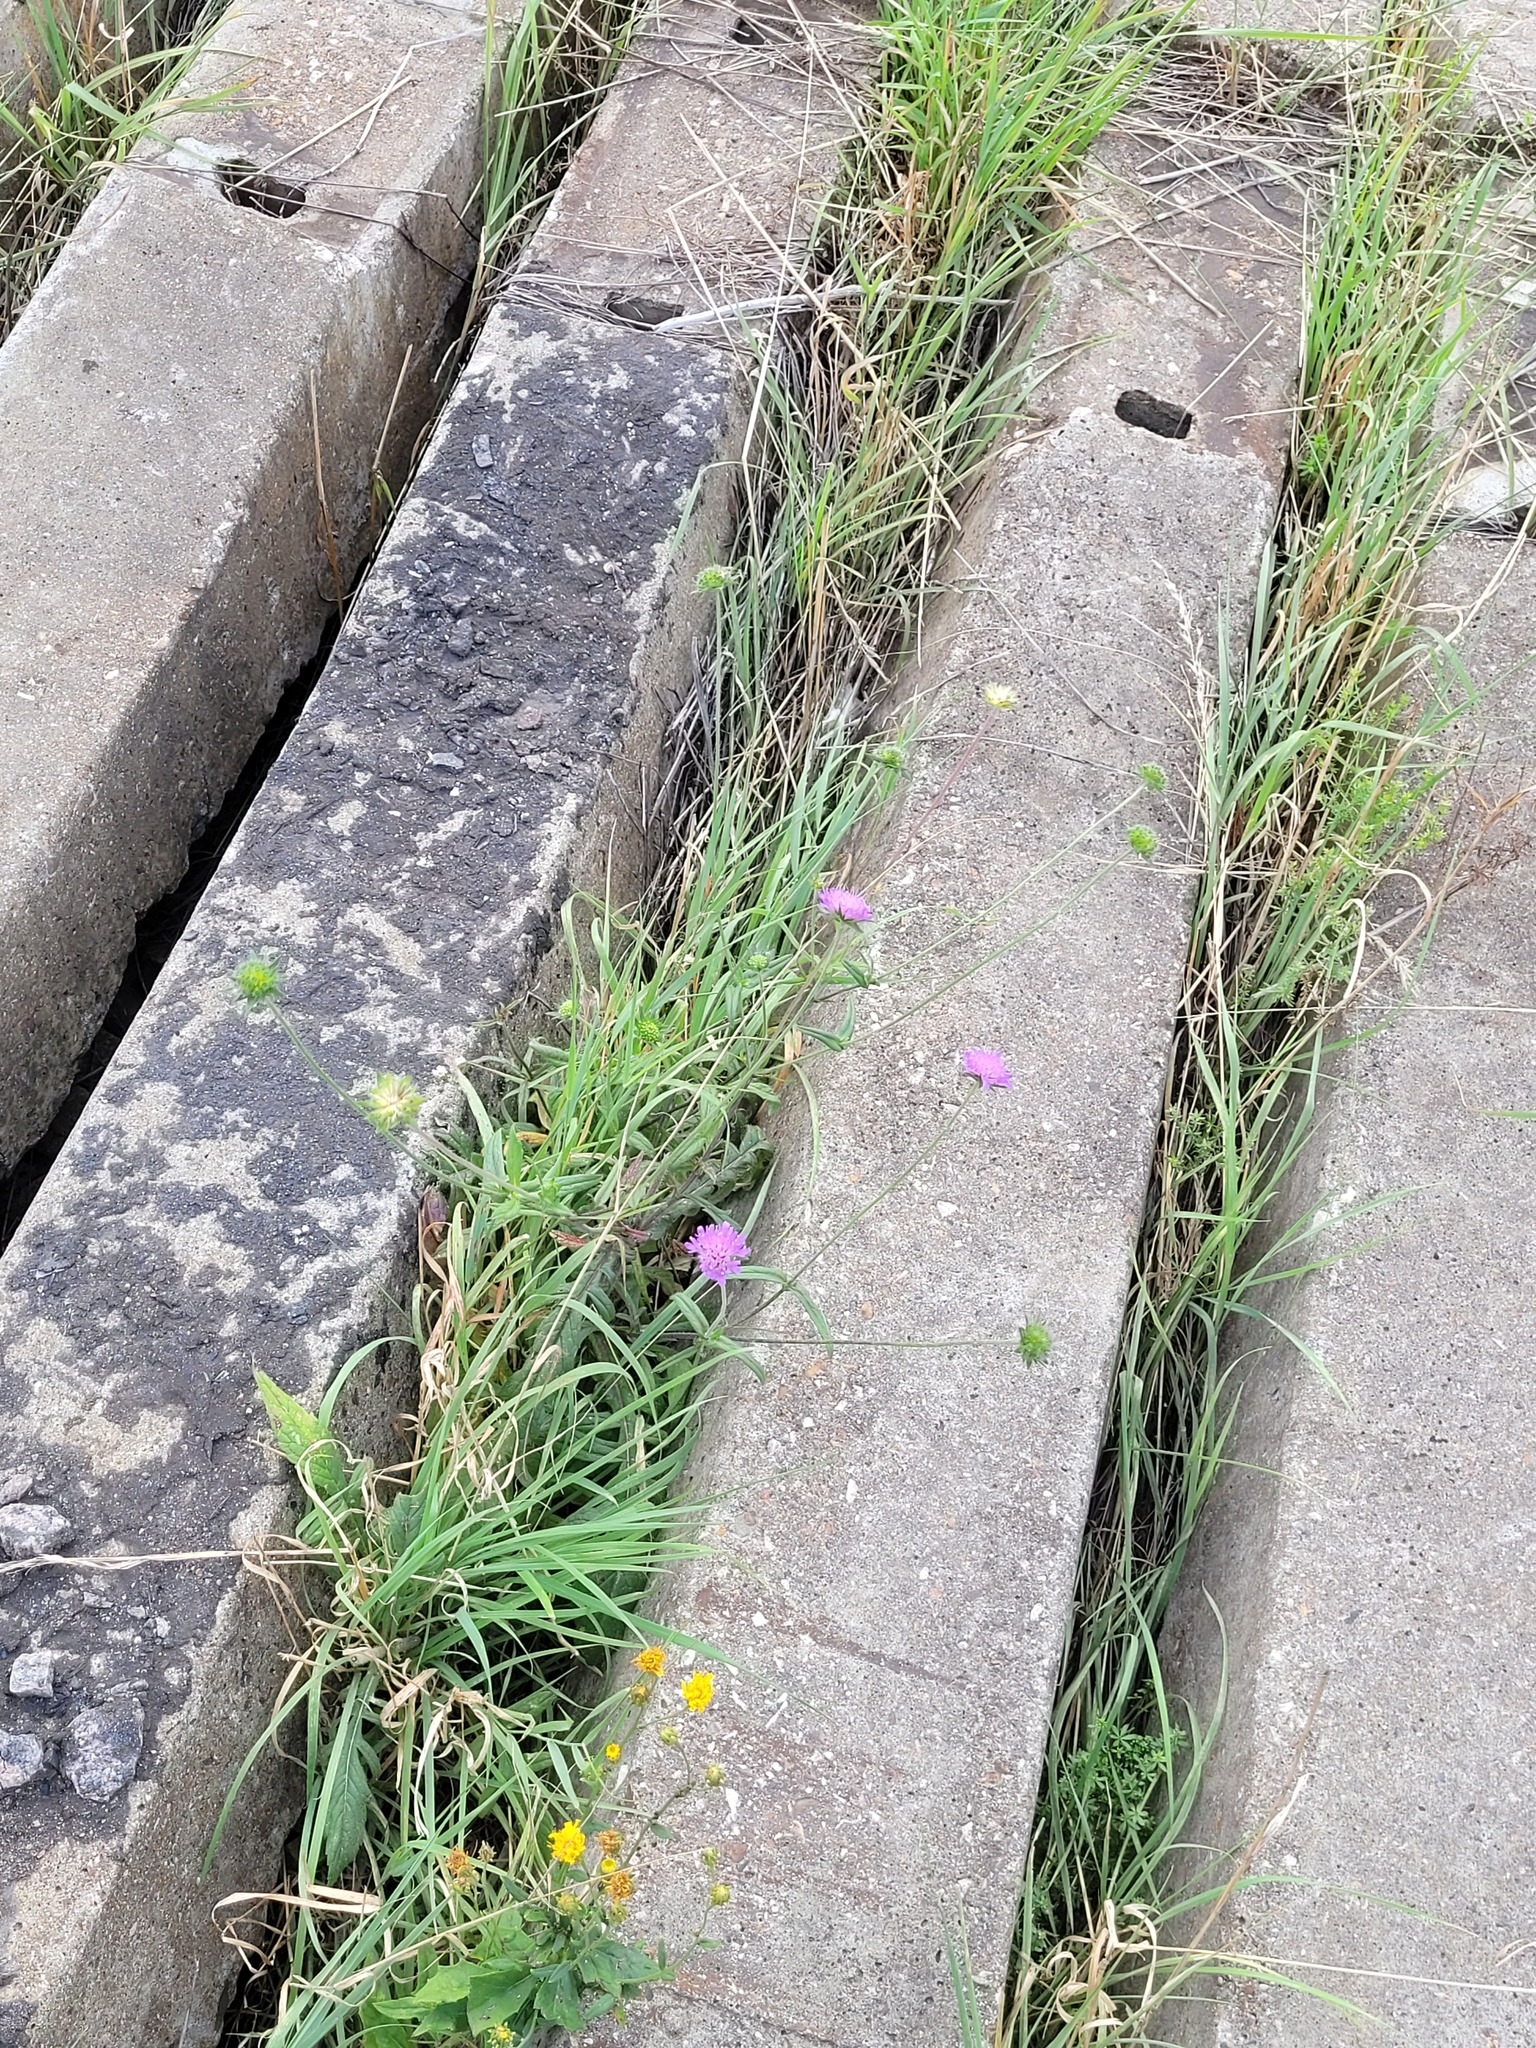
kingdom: Plantae
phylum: Tracheophyta
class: Magnoliopsida
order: Dipsacales
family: Caprifoliaceae
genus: Knautia
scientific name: Knautia arvensis
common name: Field scabiosa
